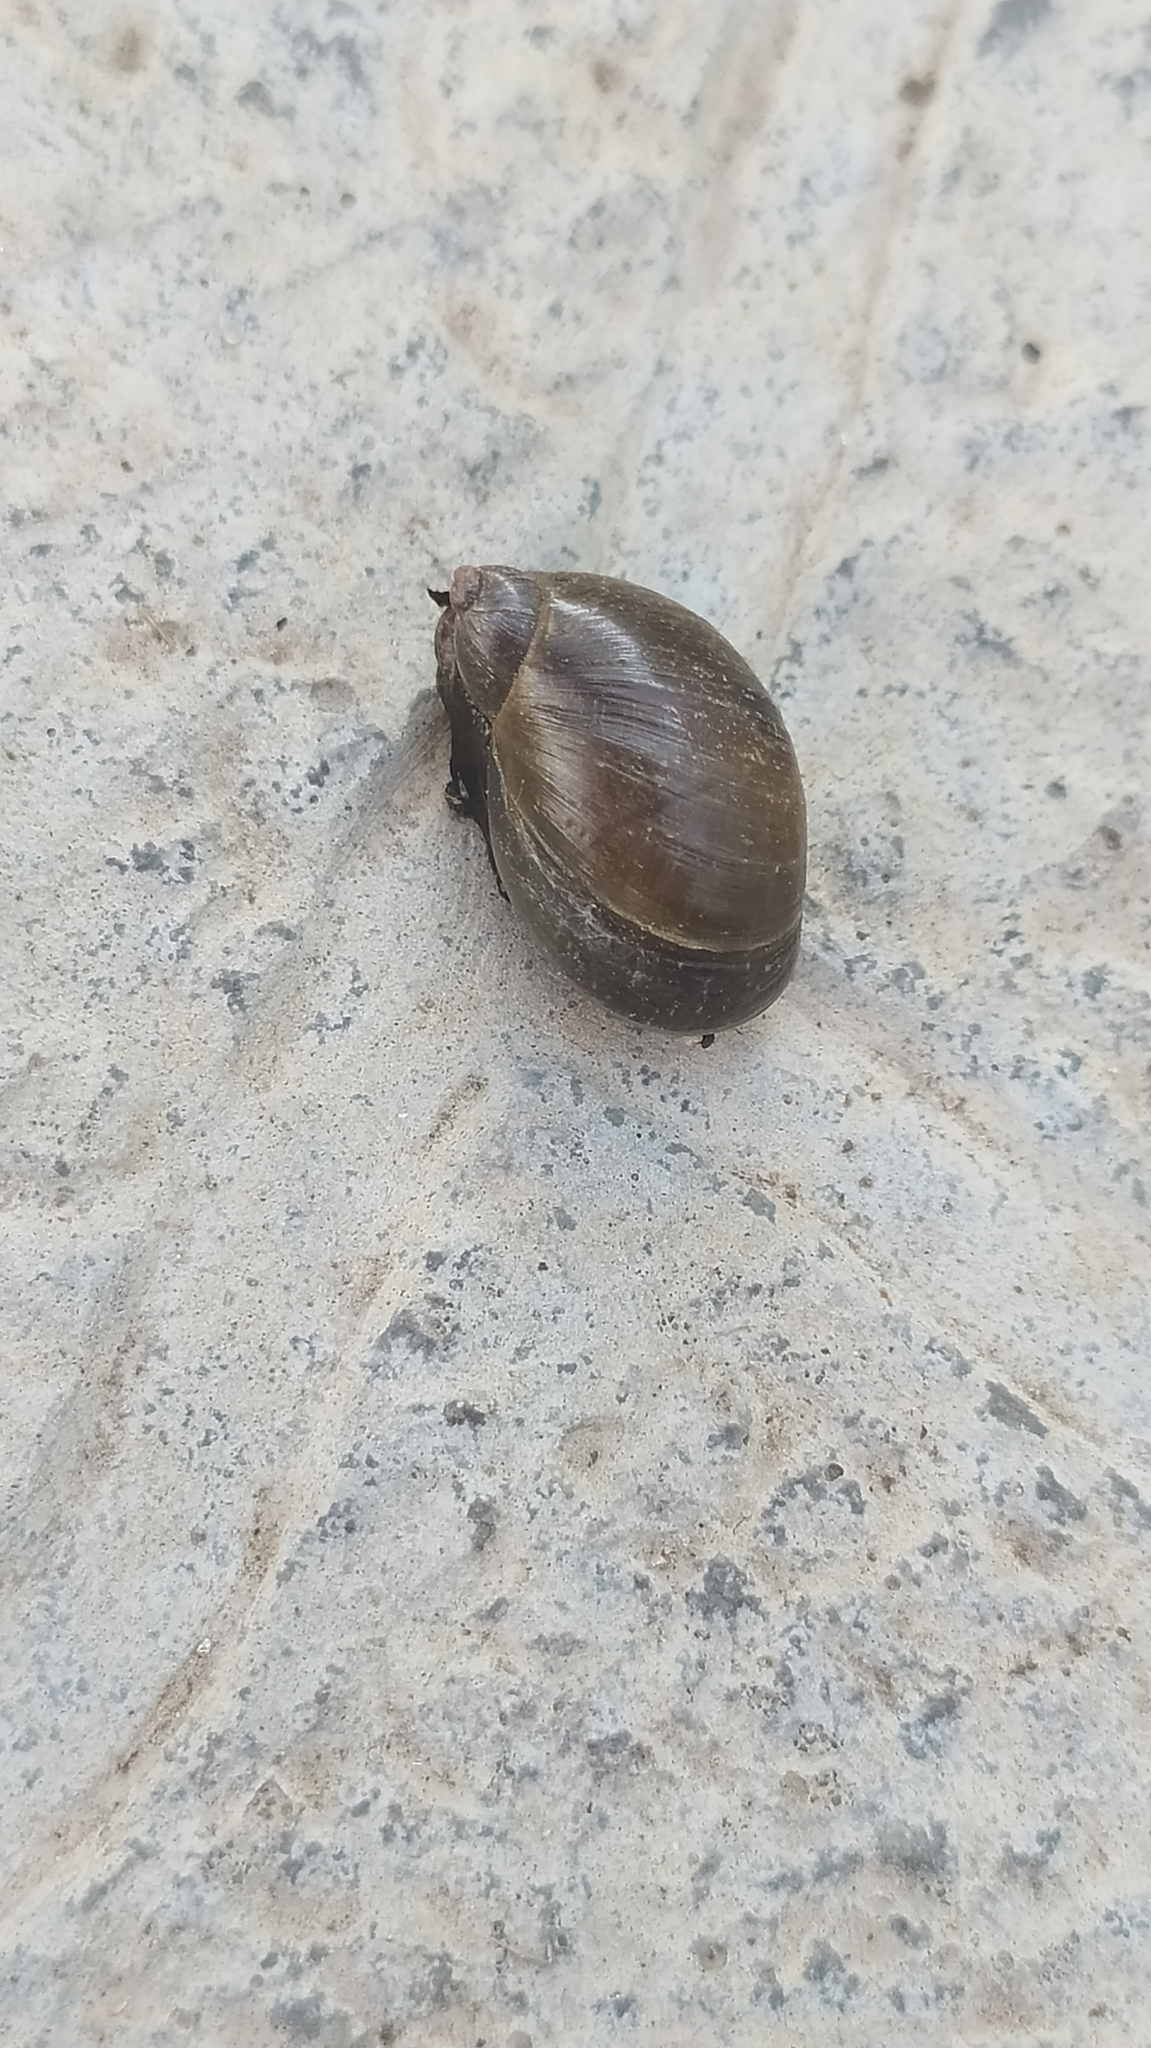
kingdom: Animalia
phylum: Mollusca
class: Gastropoda
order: Stylommatophora
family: Succineidae
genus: Succinea
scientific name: Succinea putris
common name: European ambersnail
